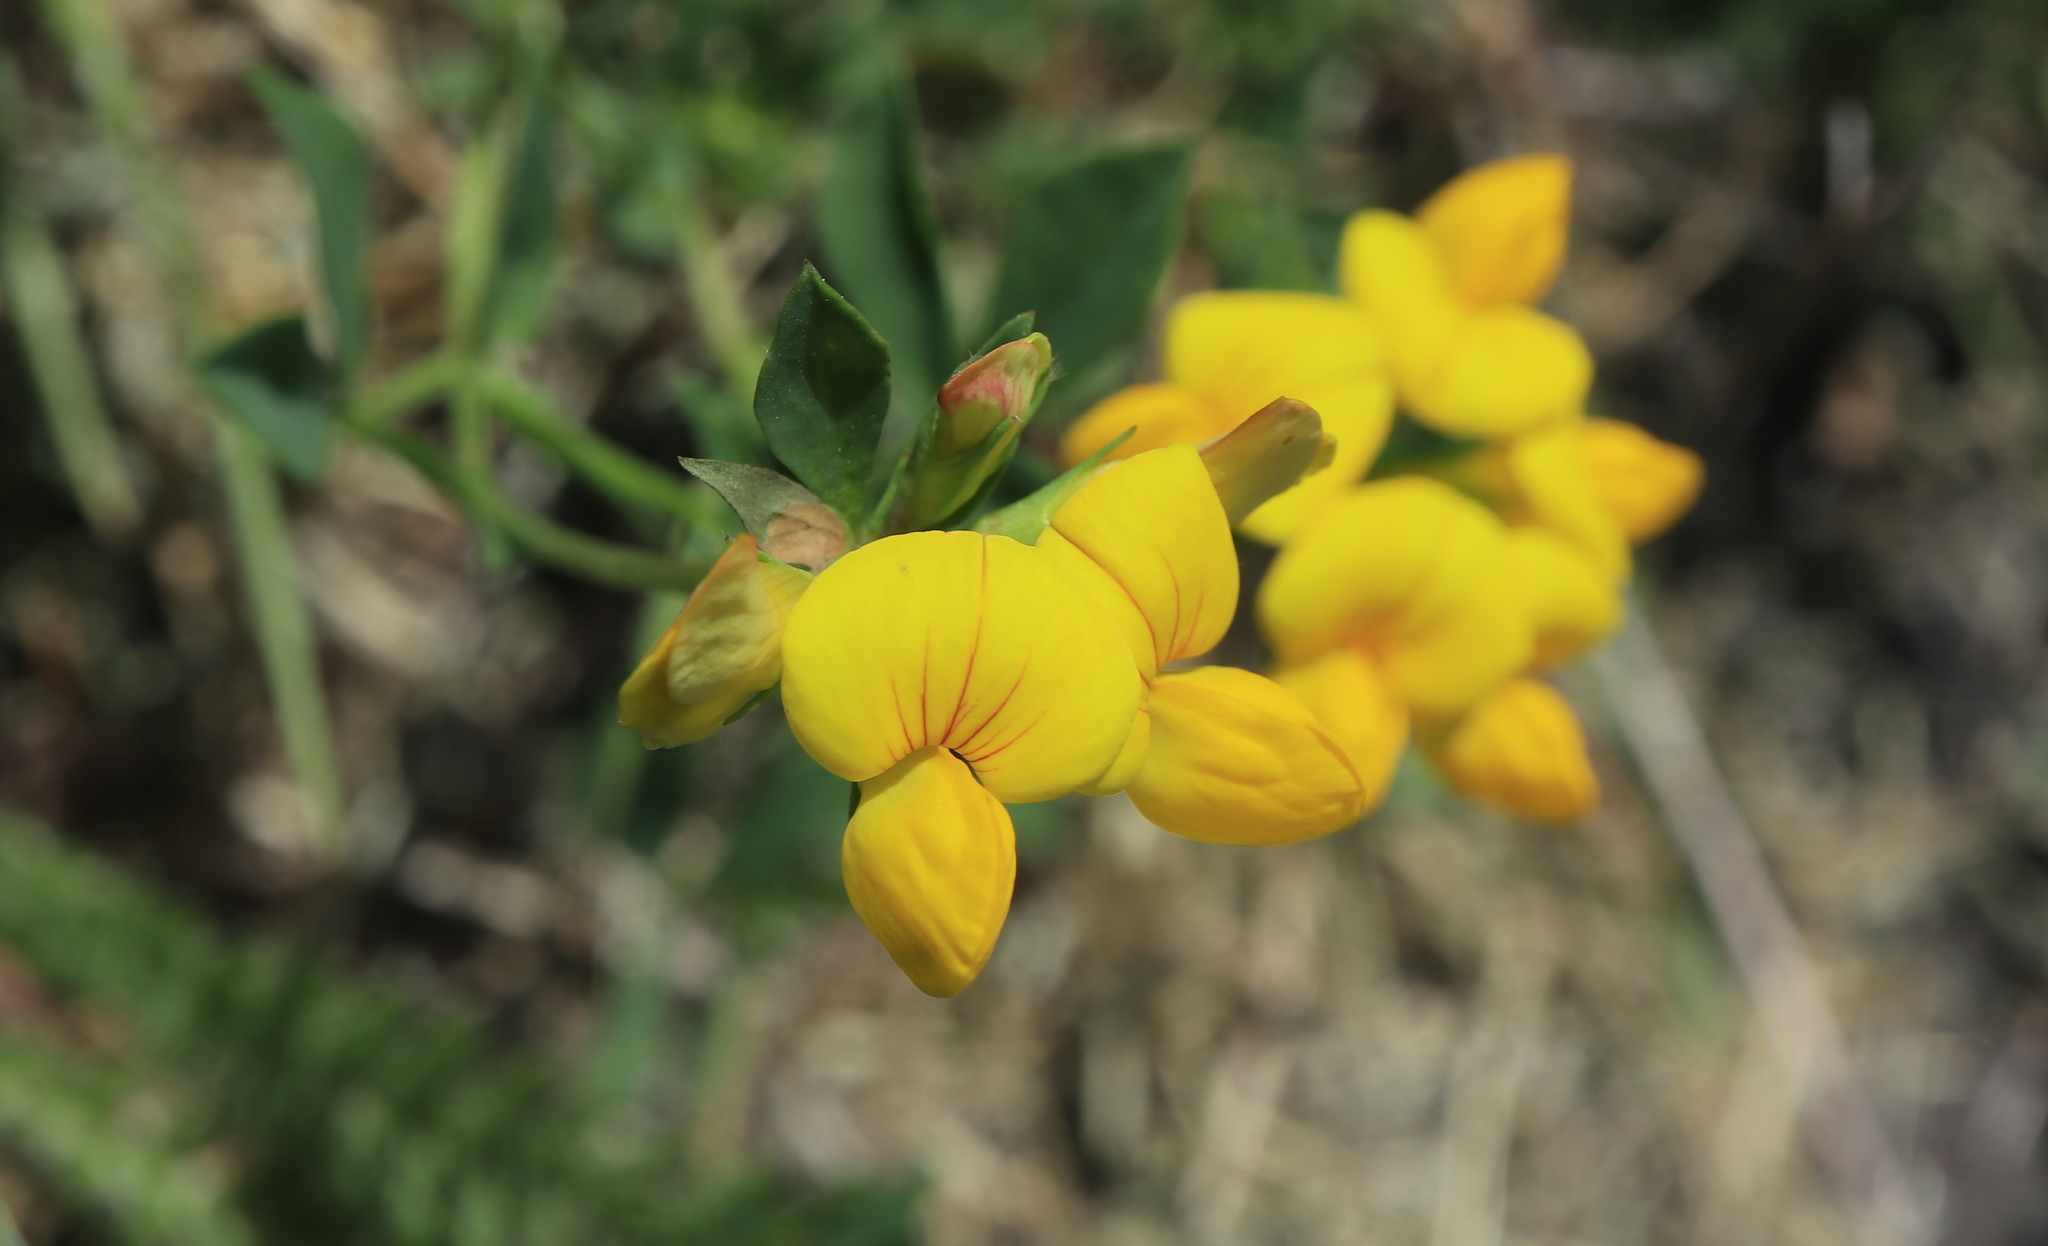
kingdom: Plantae
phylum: Tracheophyta
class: Magnoliopsida
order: Fabales
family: Fabaceae
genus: Lotus
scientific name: Lotus corniculatus
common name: Common bird's-foot-trefoil
